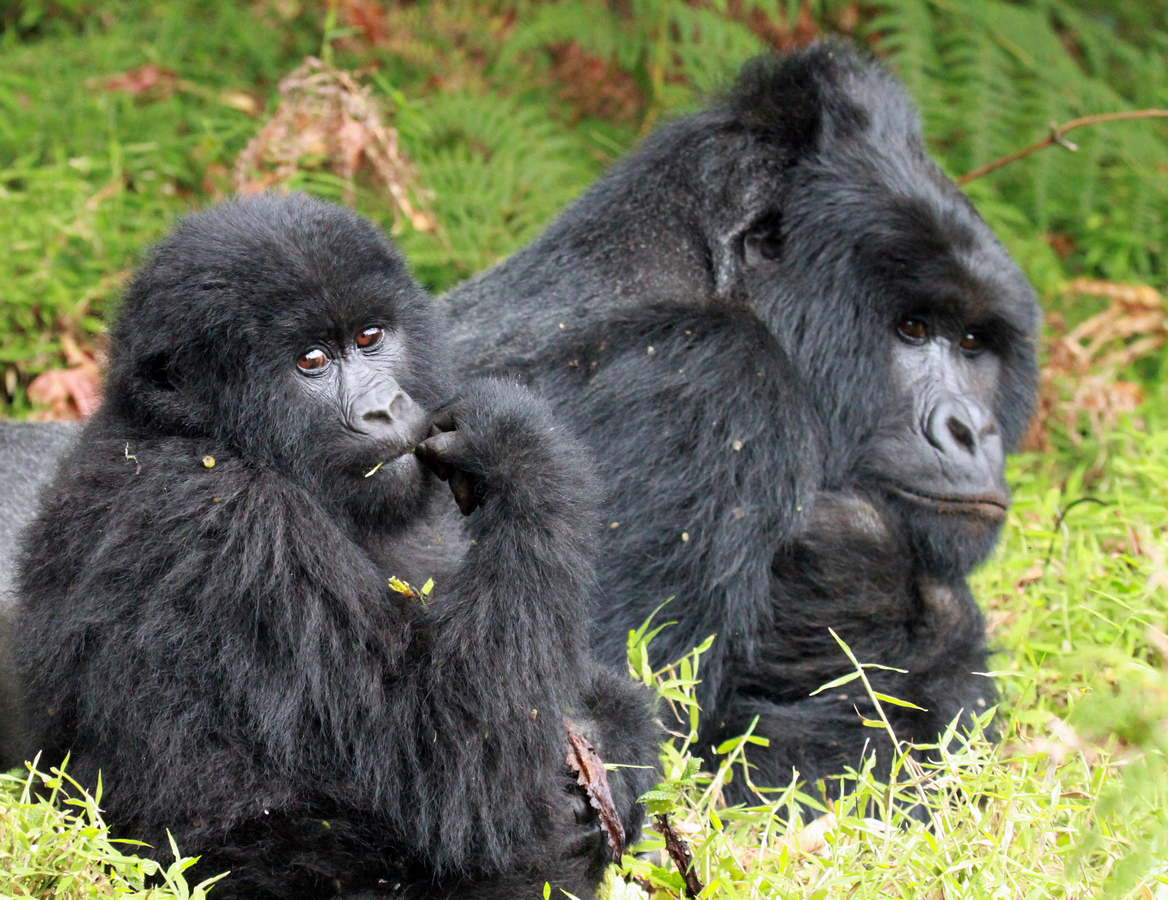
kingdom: Animalia
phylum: Chordata
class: Mammalia
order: Primates
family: Hominidae
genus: Gorilla
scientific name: Gorilla beringei
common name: Eastern gorilla
